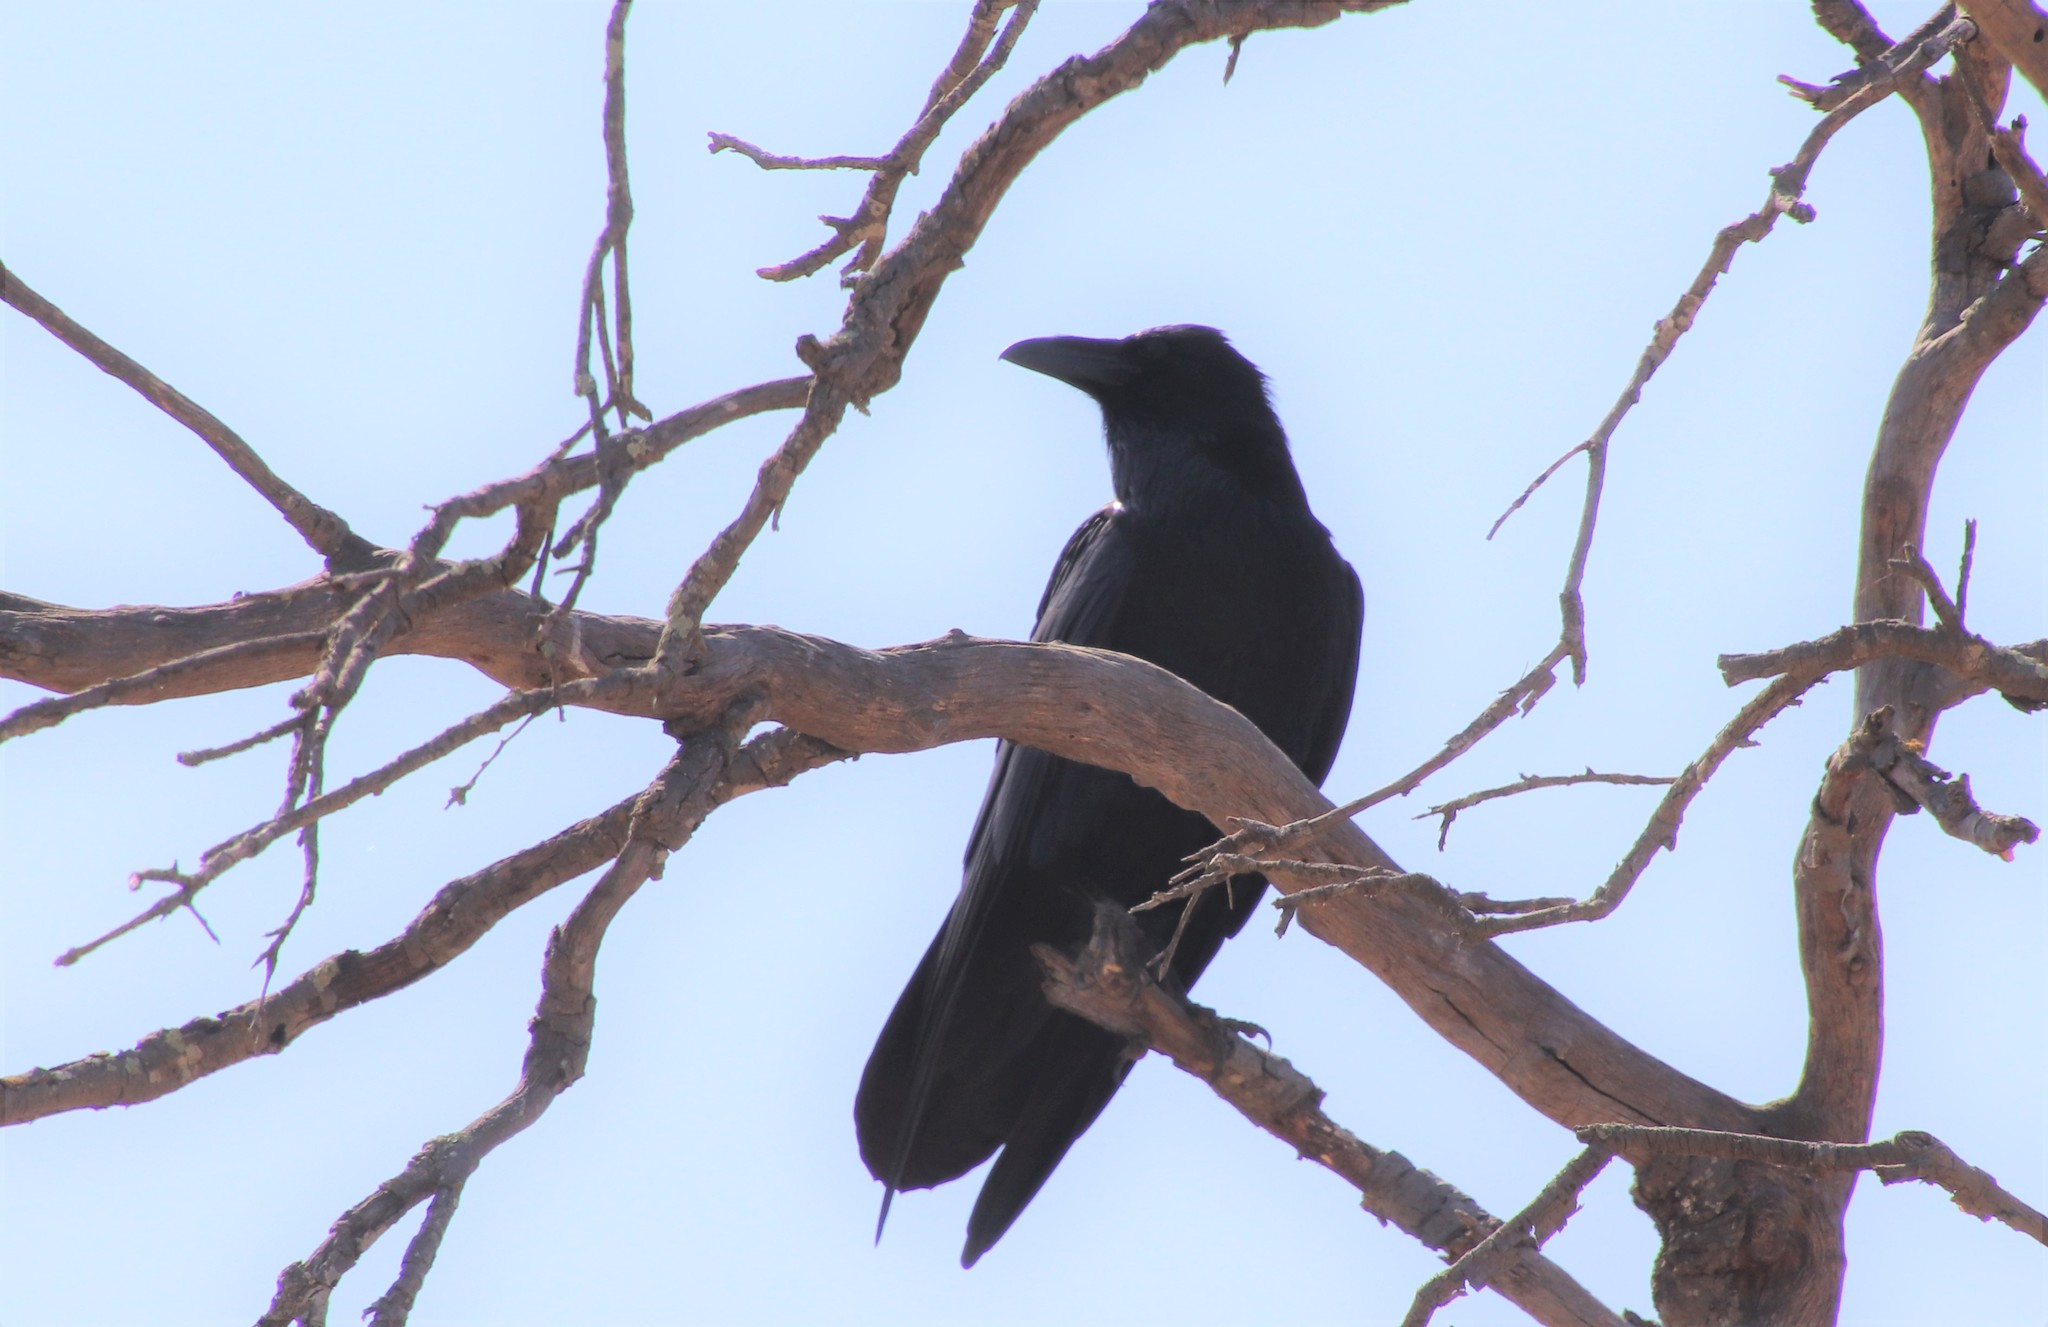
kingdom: Animalia
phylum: Chordata
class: Aves
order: Passeriformes
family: Corvidae
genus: Corvus
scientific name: Corvus corax
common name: Common raven
